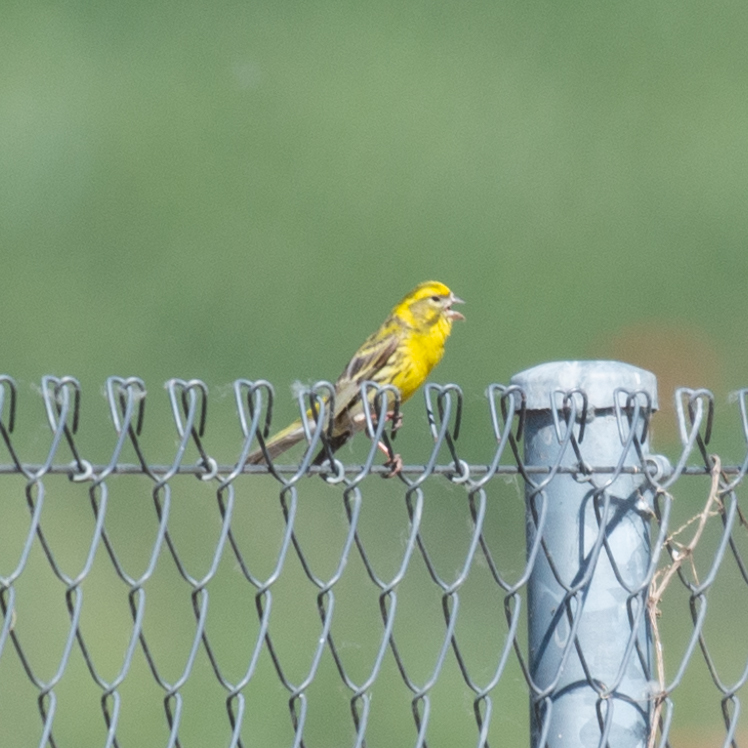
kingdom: Animalia
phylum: Chordata
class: Aves
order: Passeriformes
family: Fringillidae
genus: Serinus
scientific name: Serinus serinus
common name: European serin
